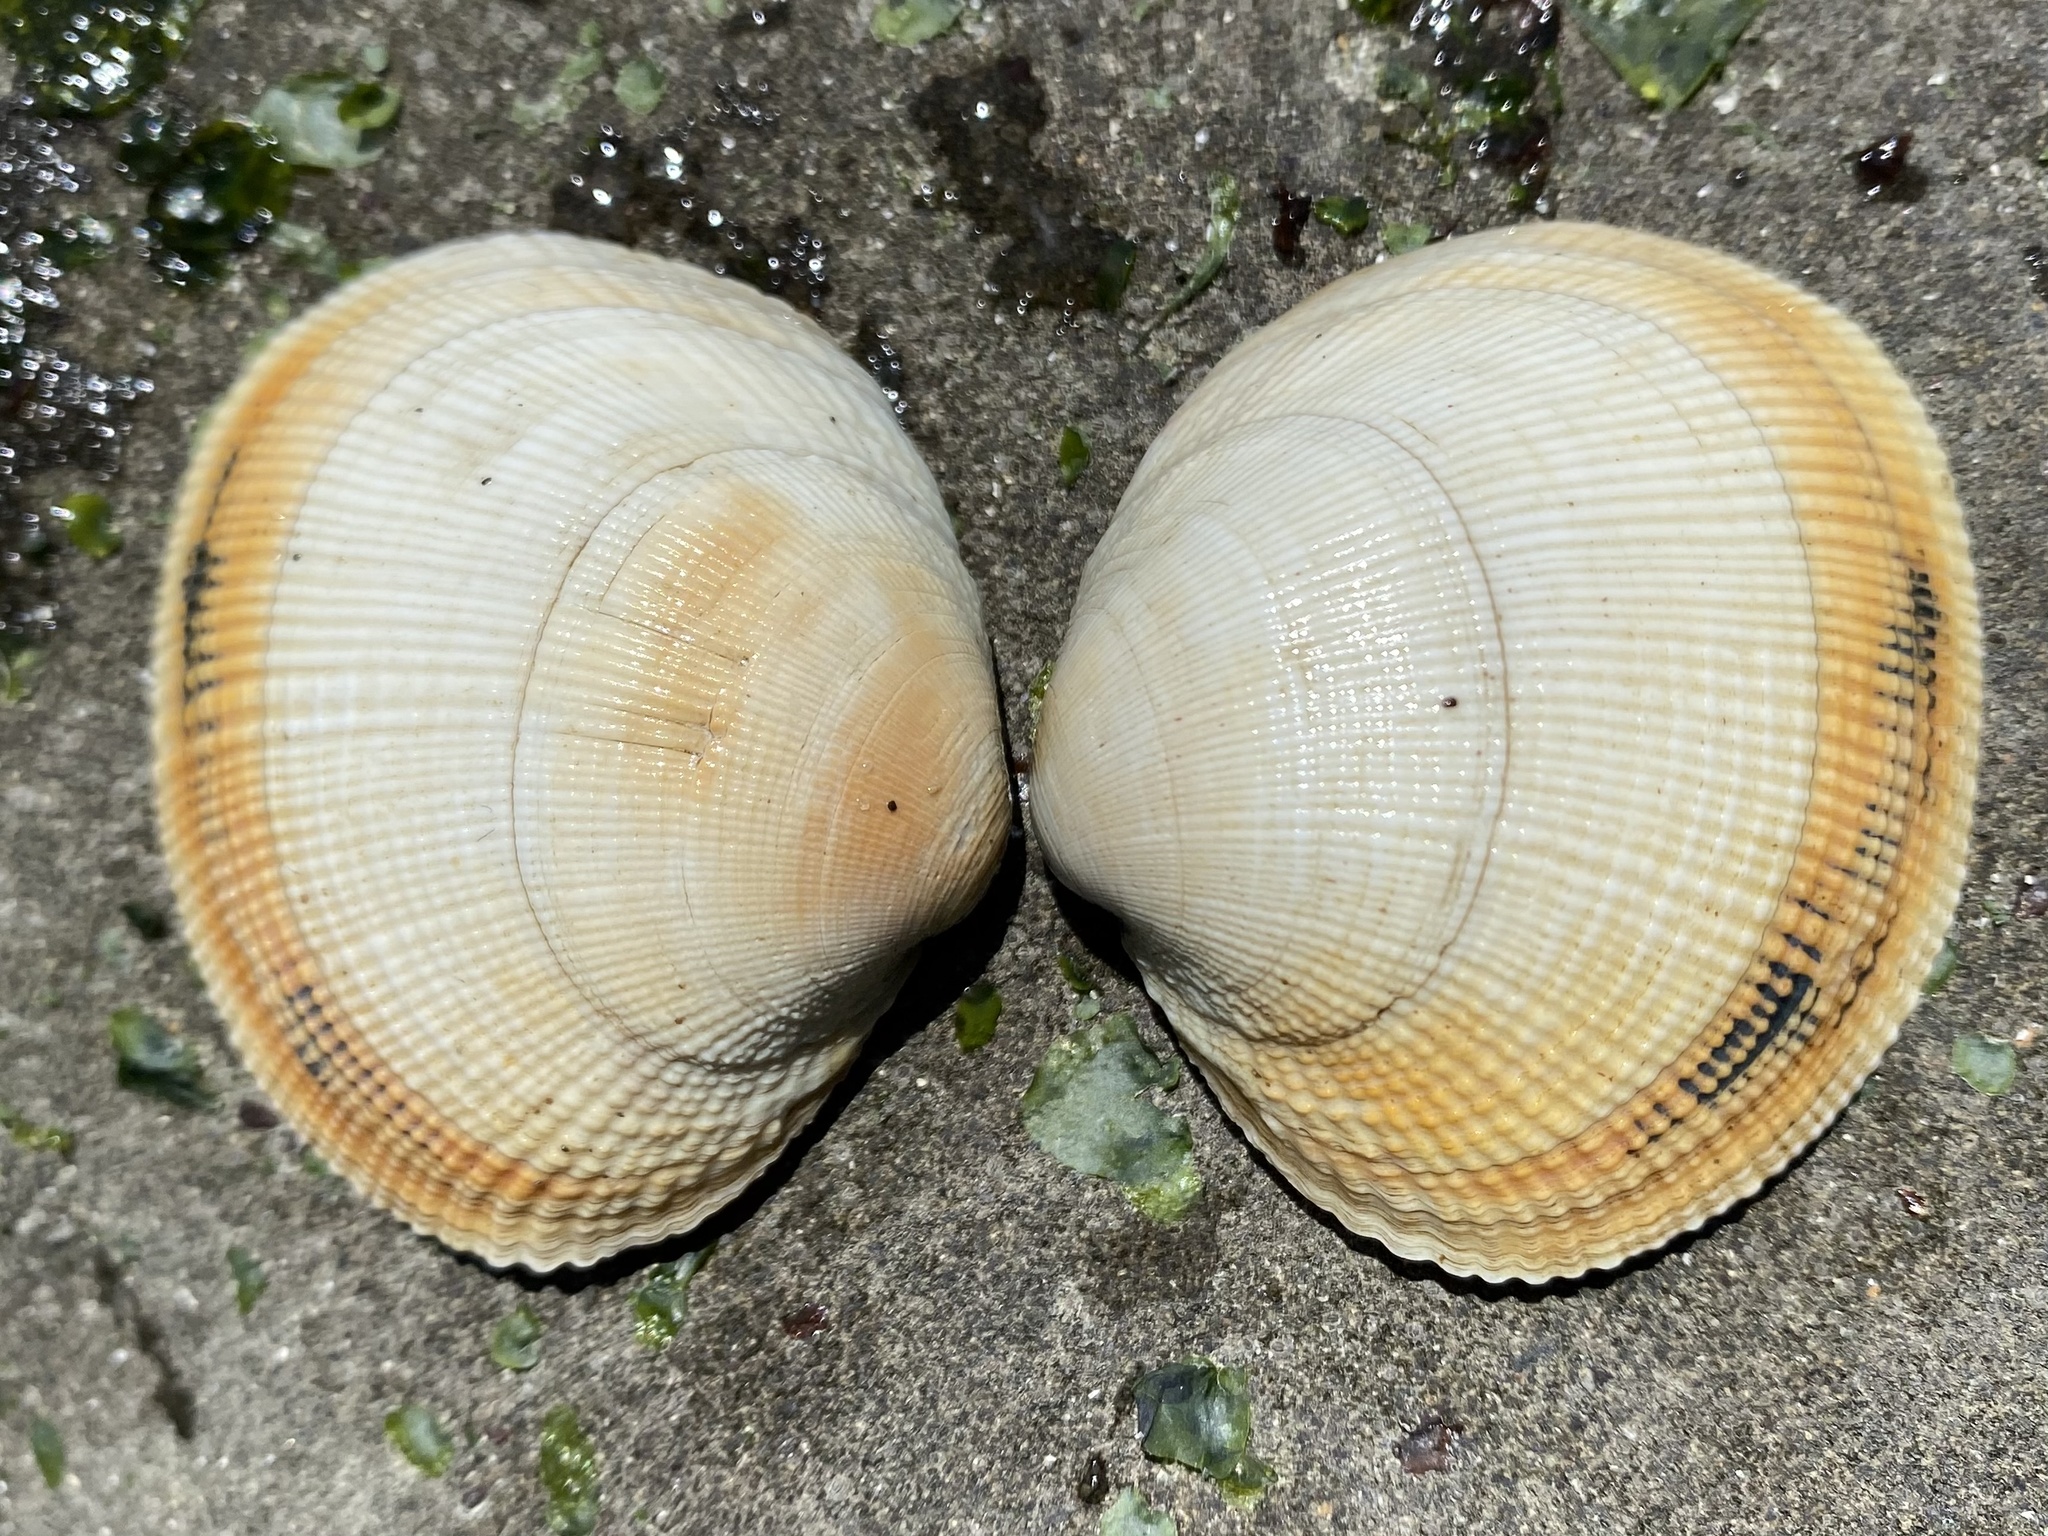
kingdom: Animalia
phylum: Mollusca
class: Bivalvia
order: Venerida
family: Veneridae
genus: Leukoma
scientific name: Leukoma staminea
